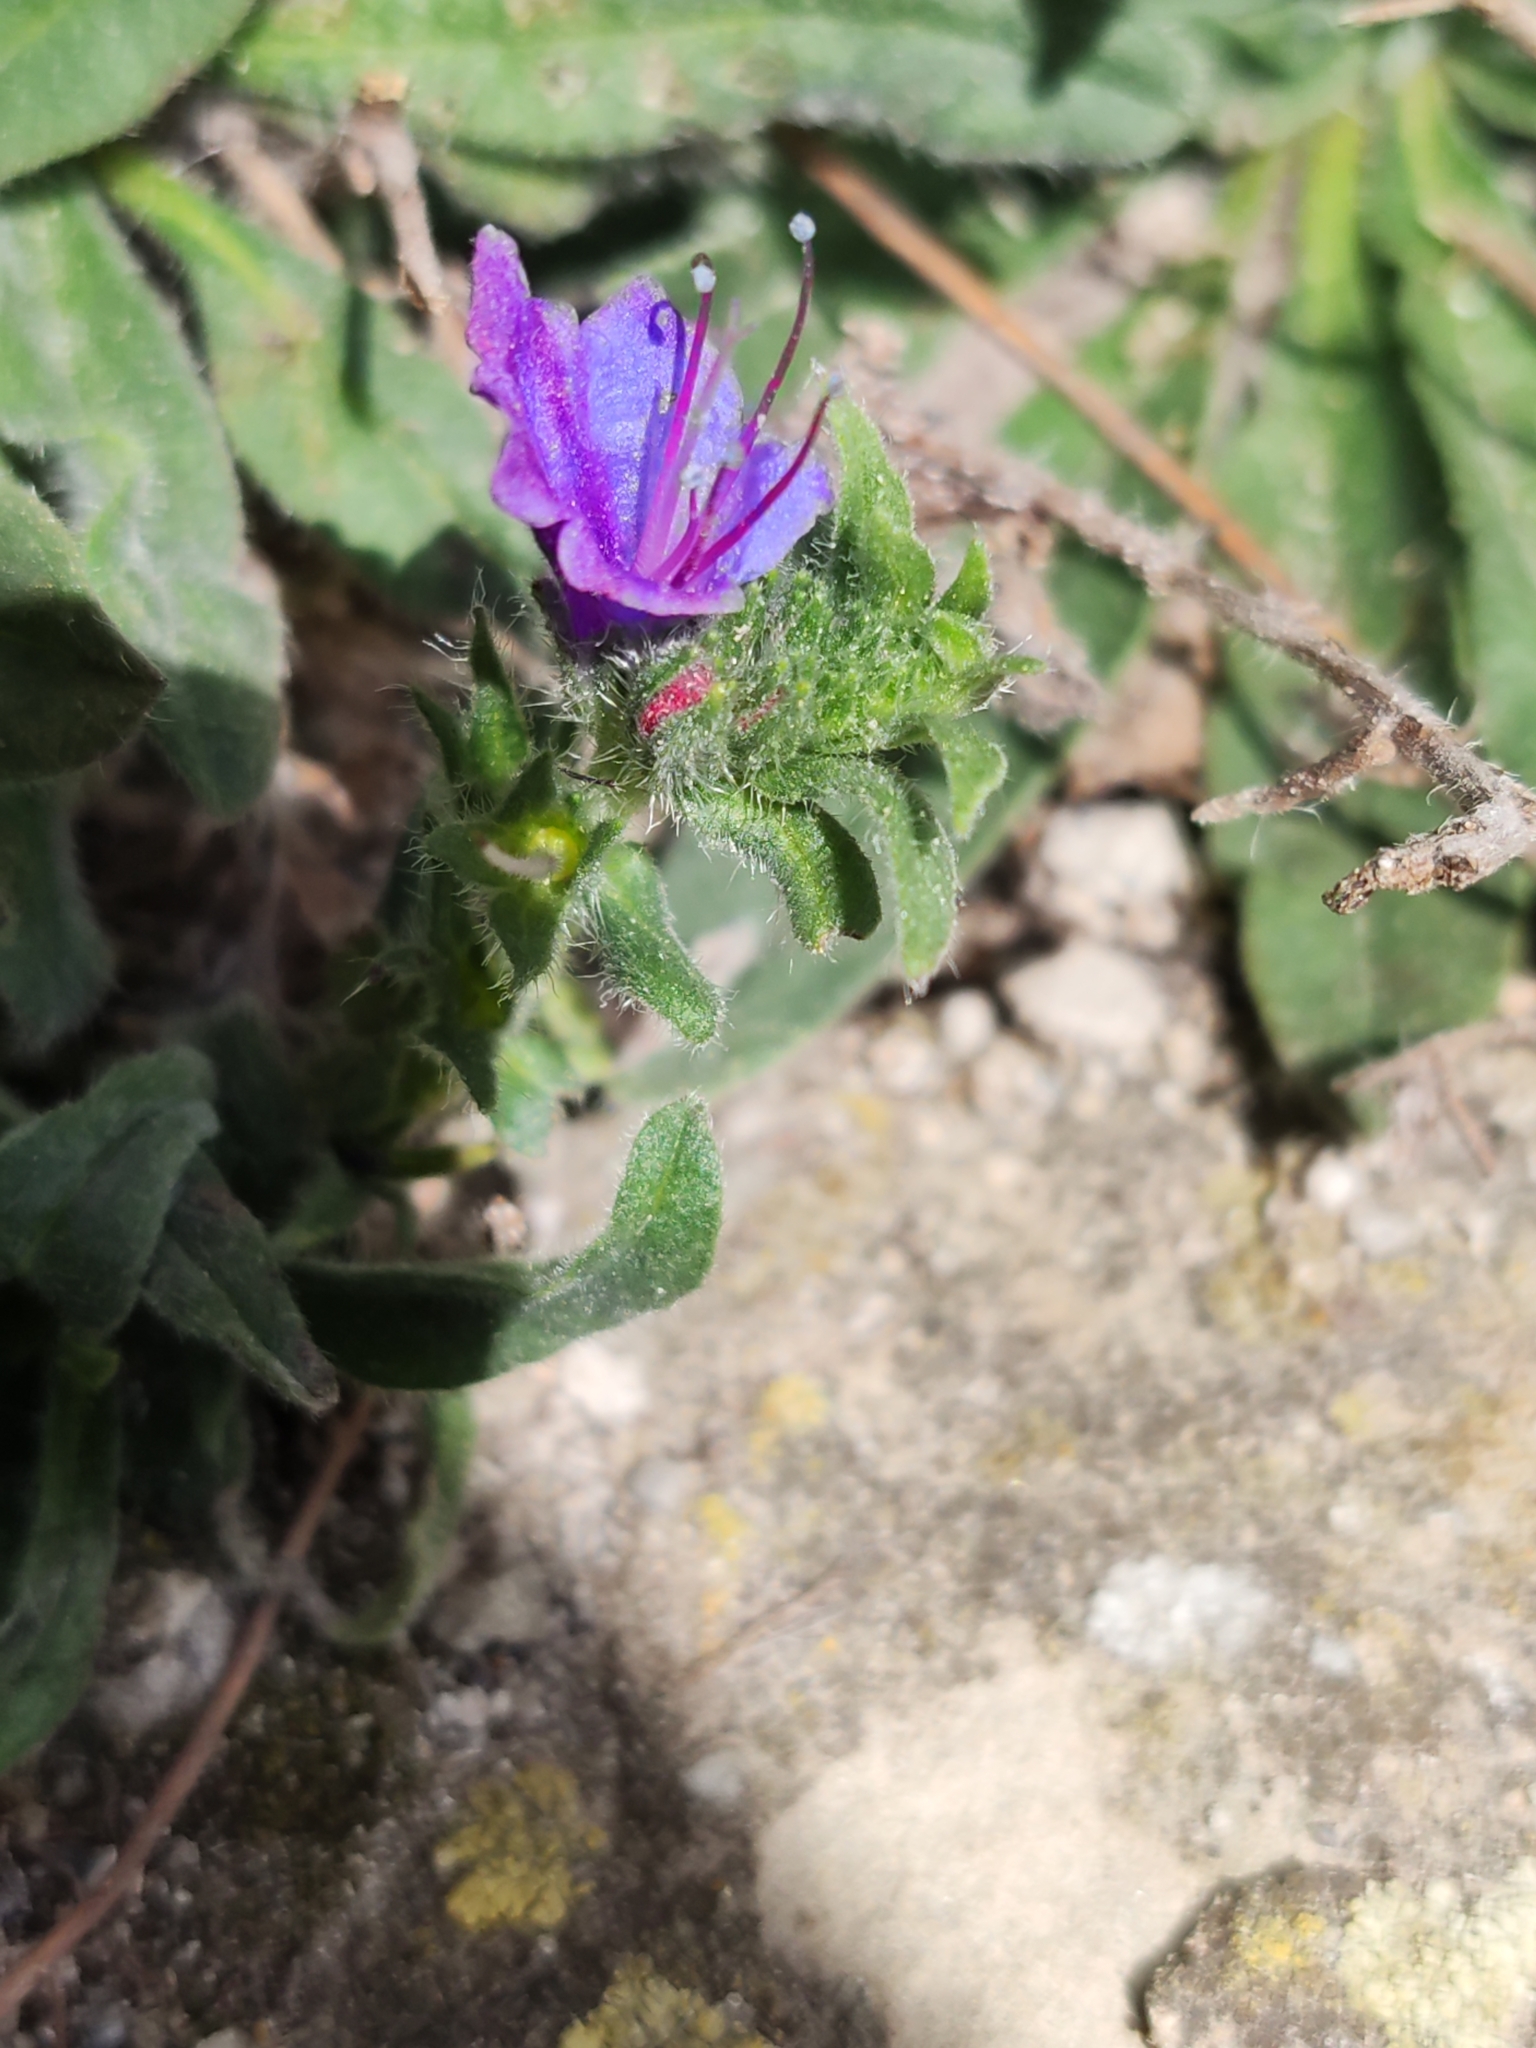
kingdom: Plantae
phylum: Tracheophyta
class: Magnoliopsida
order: Boraginales
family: Boraginaceae
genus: Echium
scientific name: Echium vulgare
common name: Common viper's bugloss
